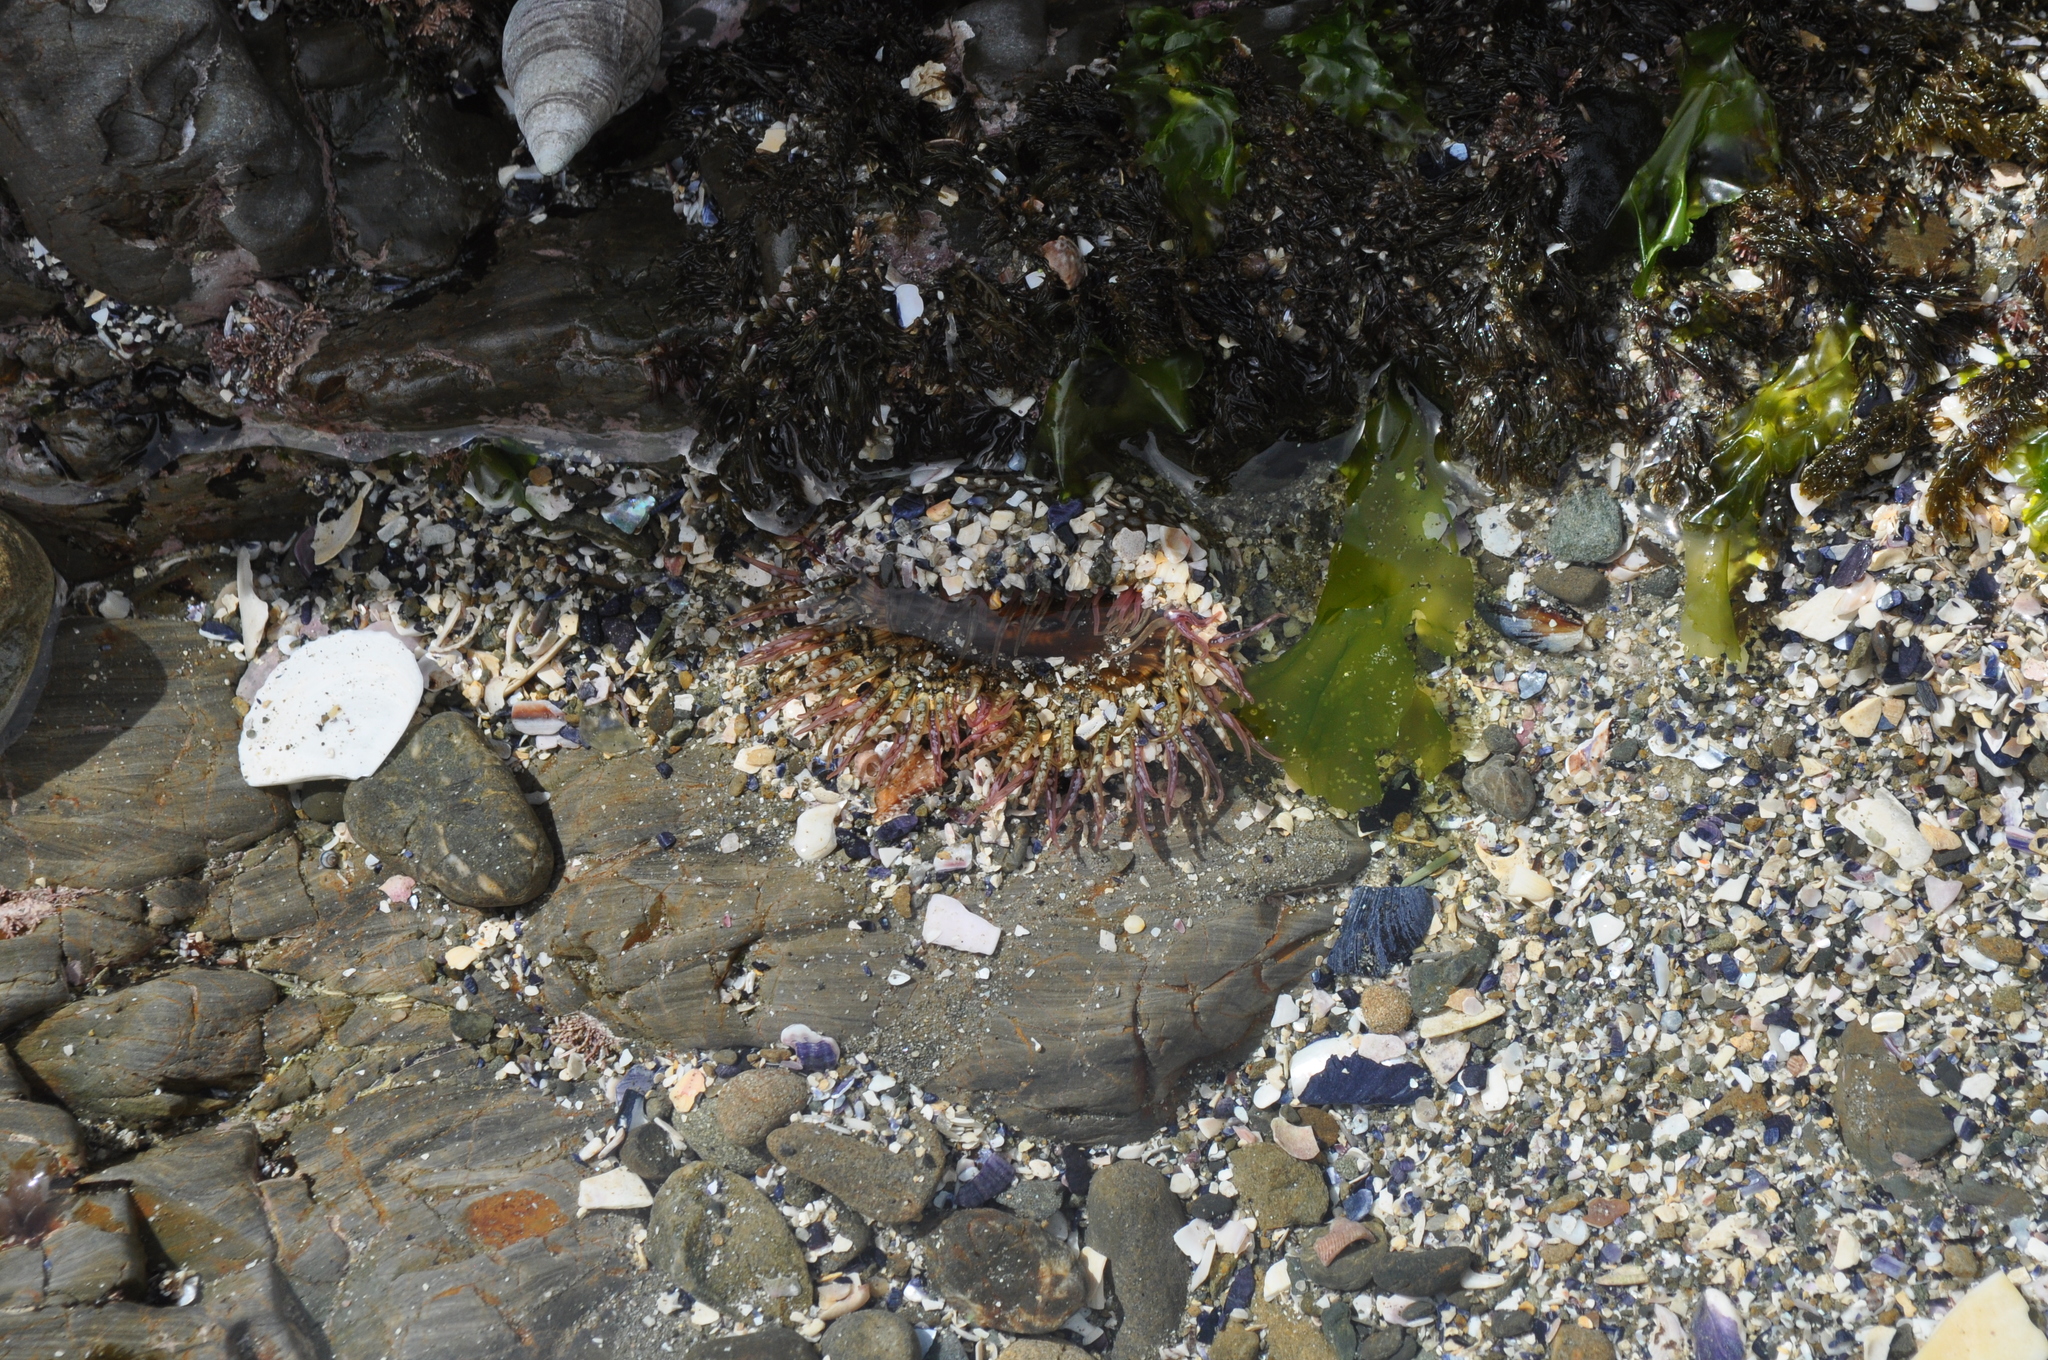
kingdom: Animalia
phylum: Cnidaria
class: Anthozoa
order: Actiniaria
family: Actiniidae
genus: Oulactis
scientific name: Oulactis muscosa
